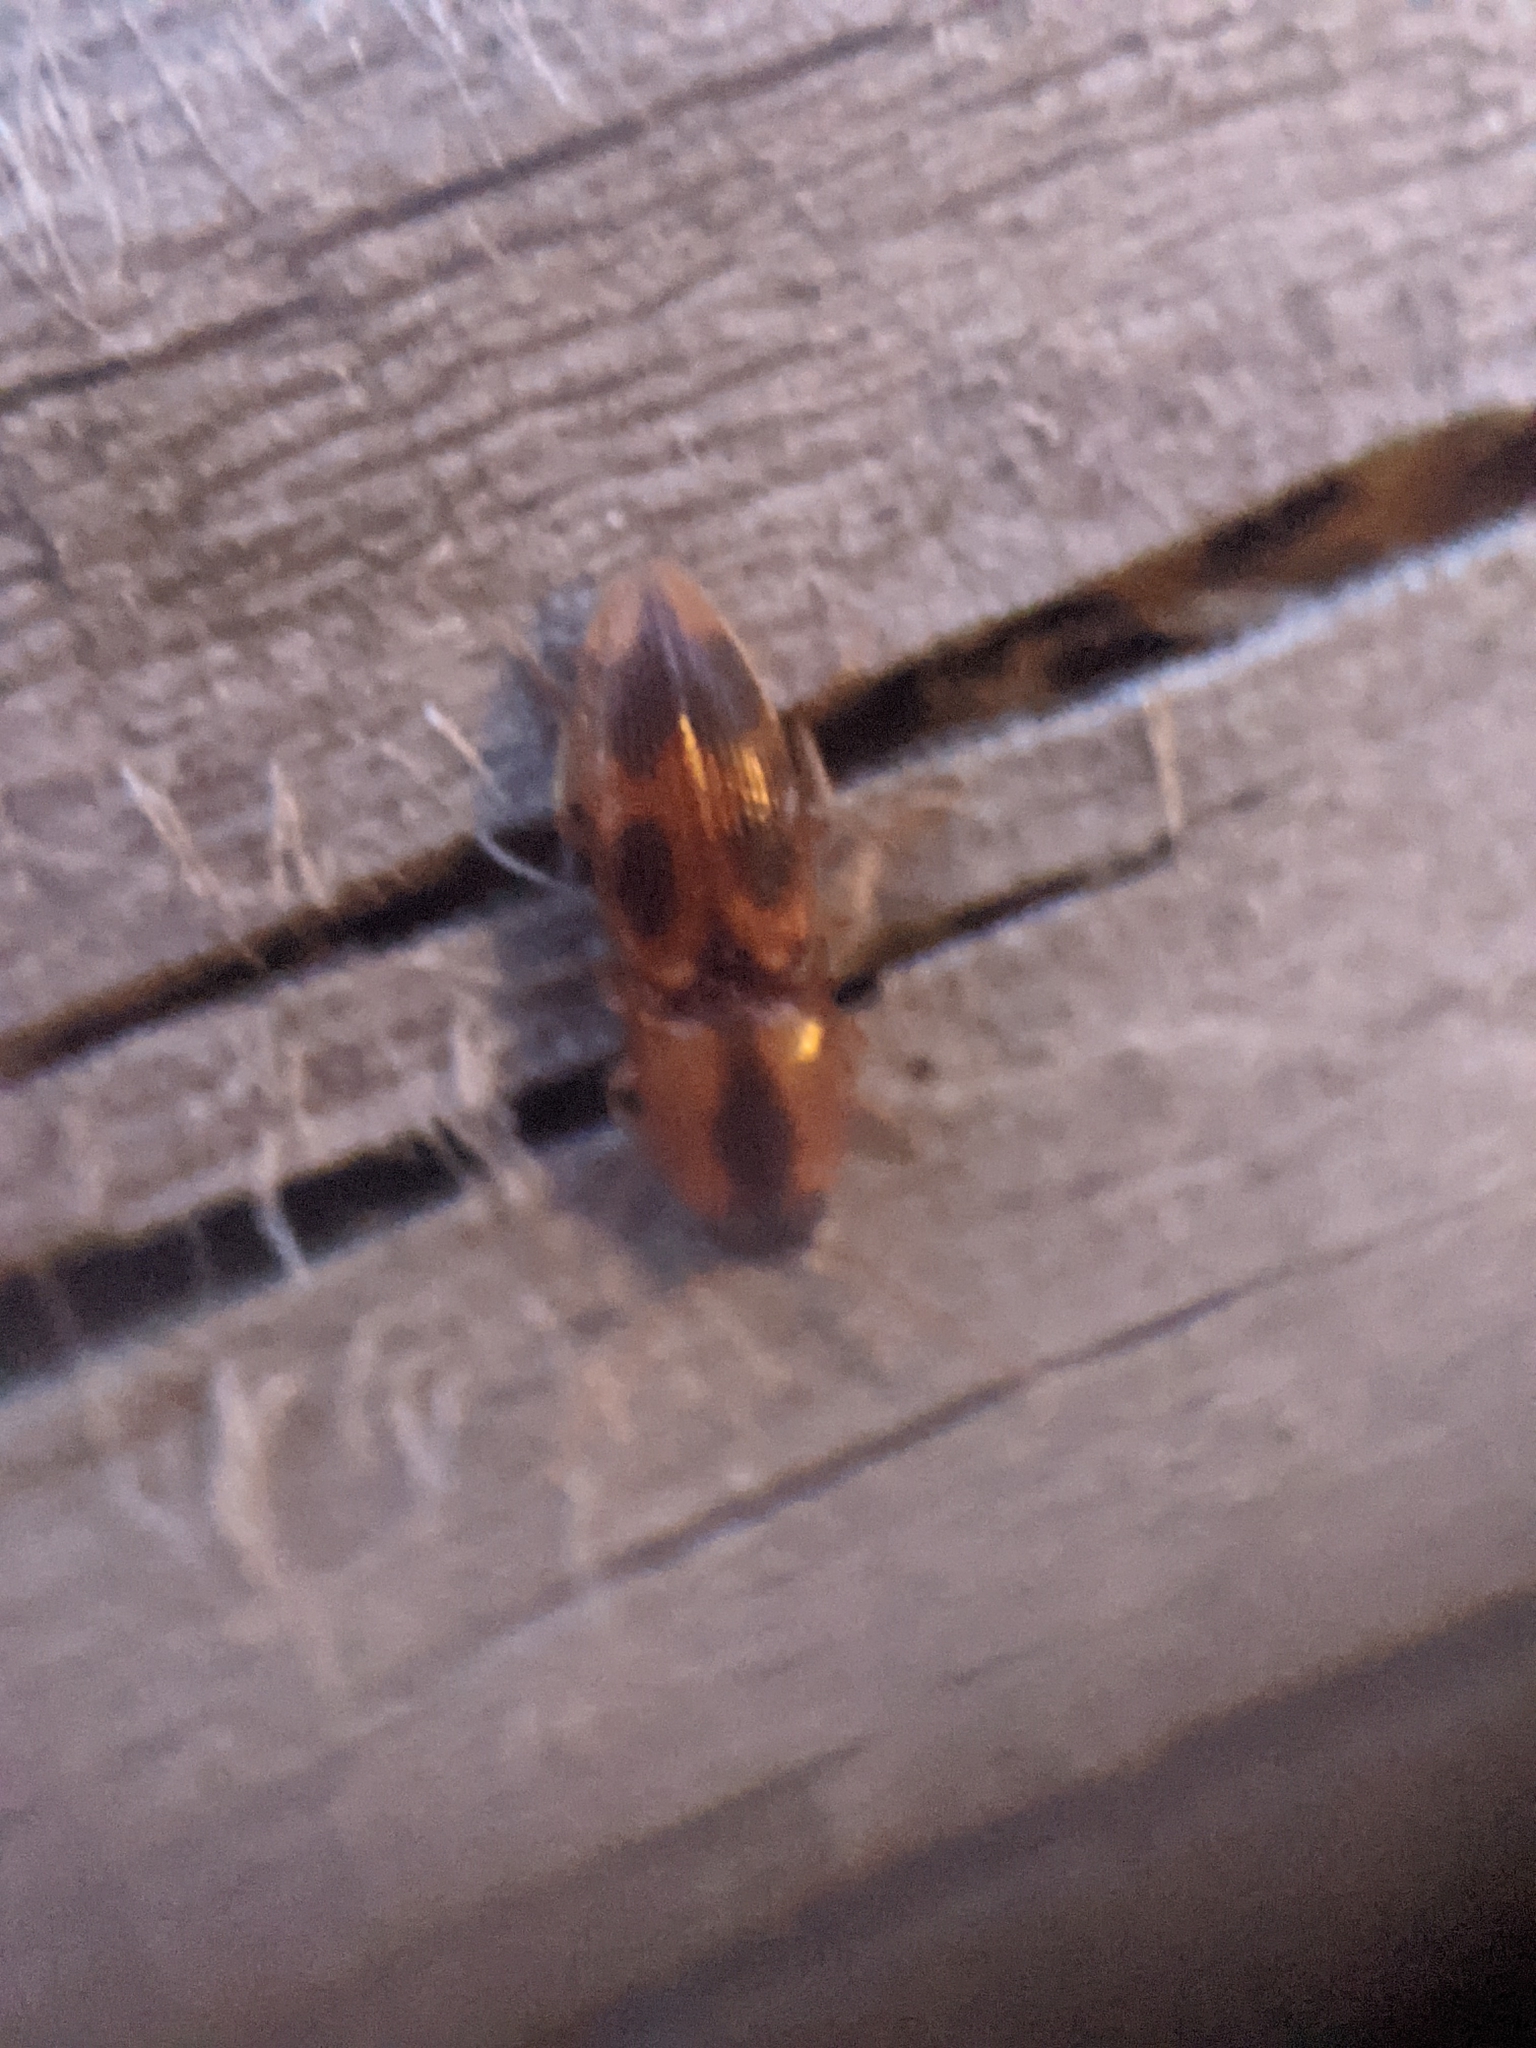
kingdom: Animalia
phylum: Arthropoda
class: Insecta
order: Coleoptera
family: Elateridae
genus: Aeolus
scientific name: Aeolus mellillus
